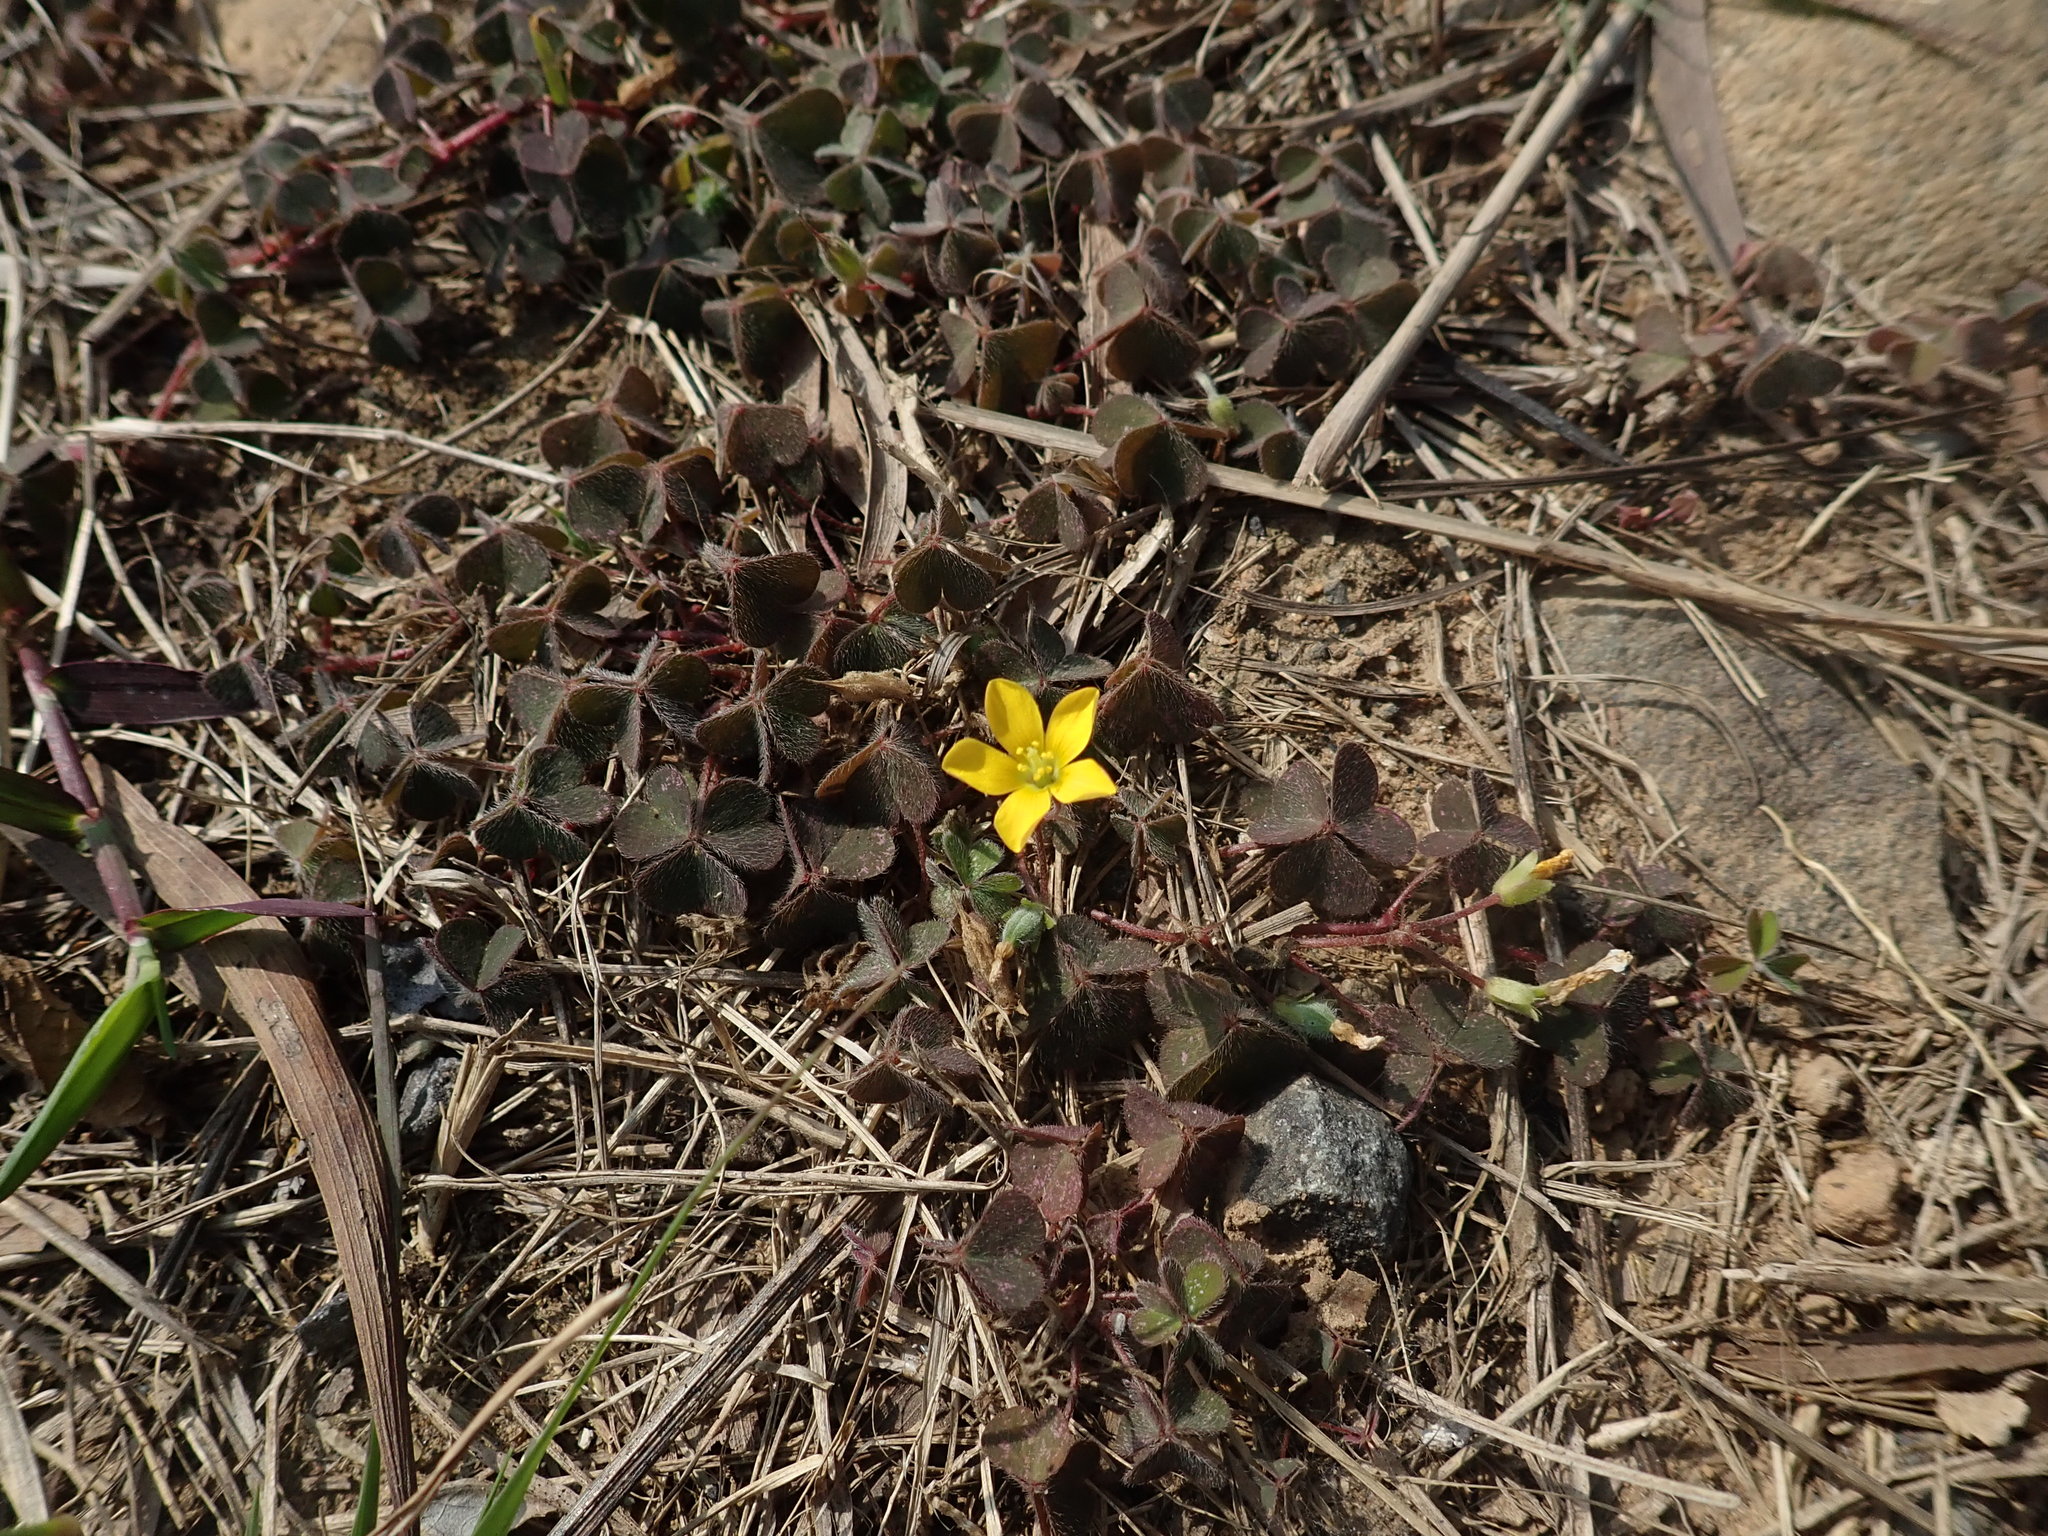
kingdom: Plantae
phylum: Tracheophyta
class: Magnoliopsida
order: Oxalidales
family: Oxalidaceae
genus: Oxalis
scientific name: Oxalis corniculata
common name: Procumbent yellow-sorrel
